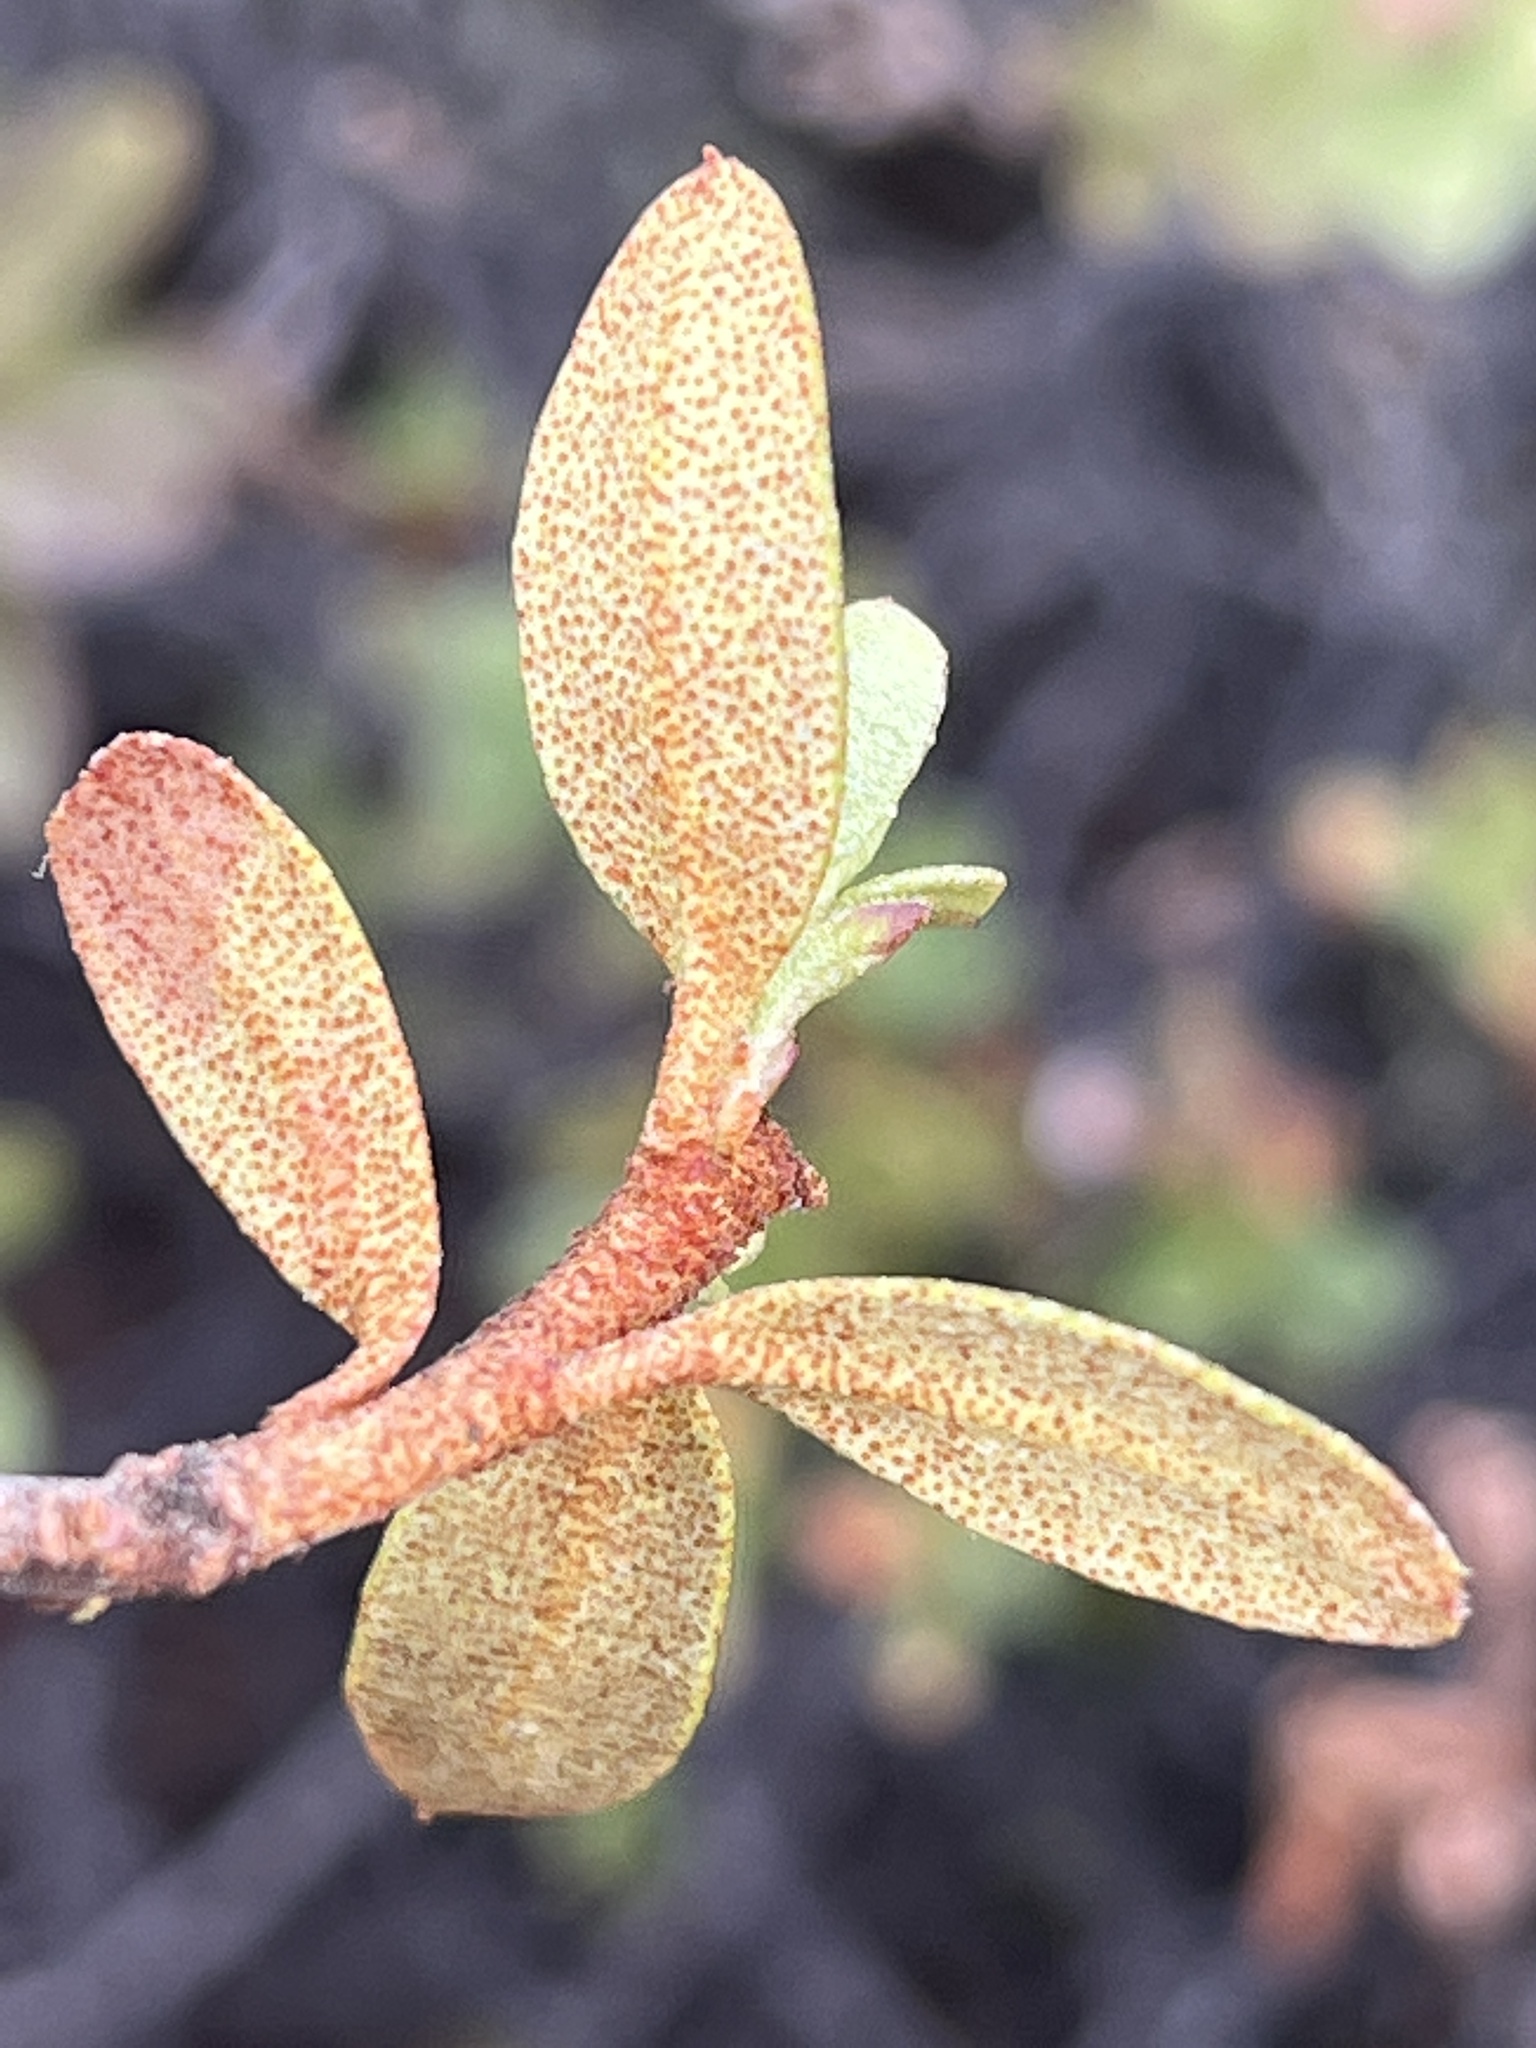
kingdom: Plantae
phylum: Tracheophyta
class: Magnoliopsida
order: Ericales
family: Ericaceae
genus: Rhododendron
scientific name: Rhododendron lapponicum
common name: Lapland rhododendron
